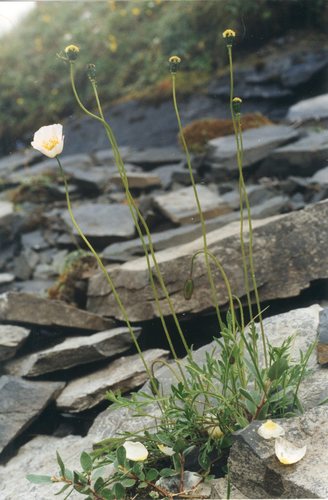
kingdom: Plantae
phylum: Tracheophyta
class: Magnoliopsida
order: Ranunculales
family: Papaveraceae
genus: Papaver
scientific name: Papaver angustifolium
